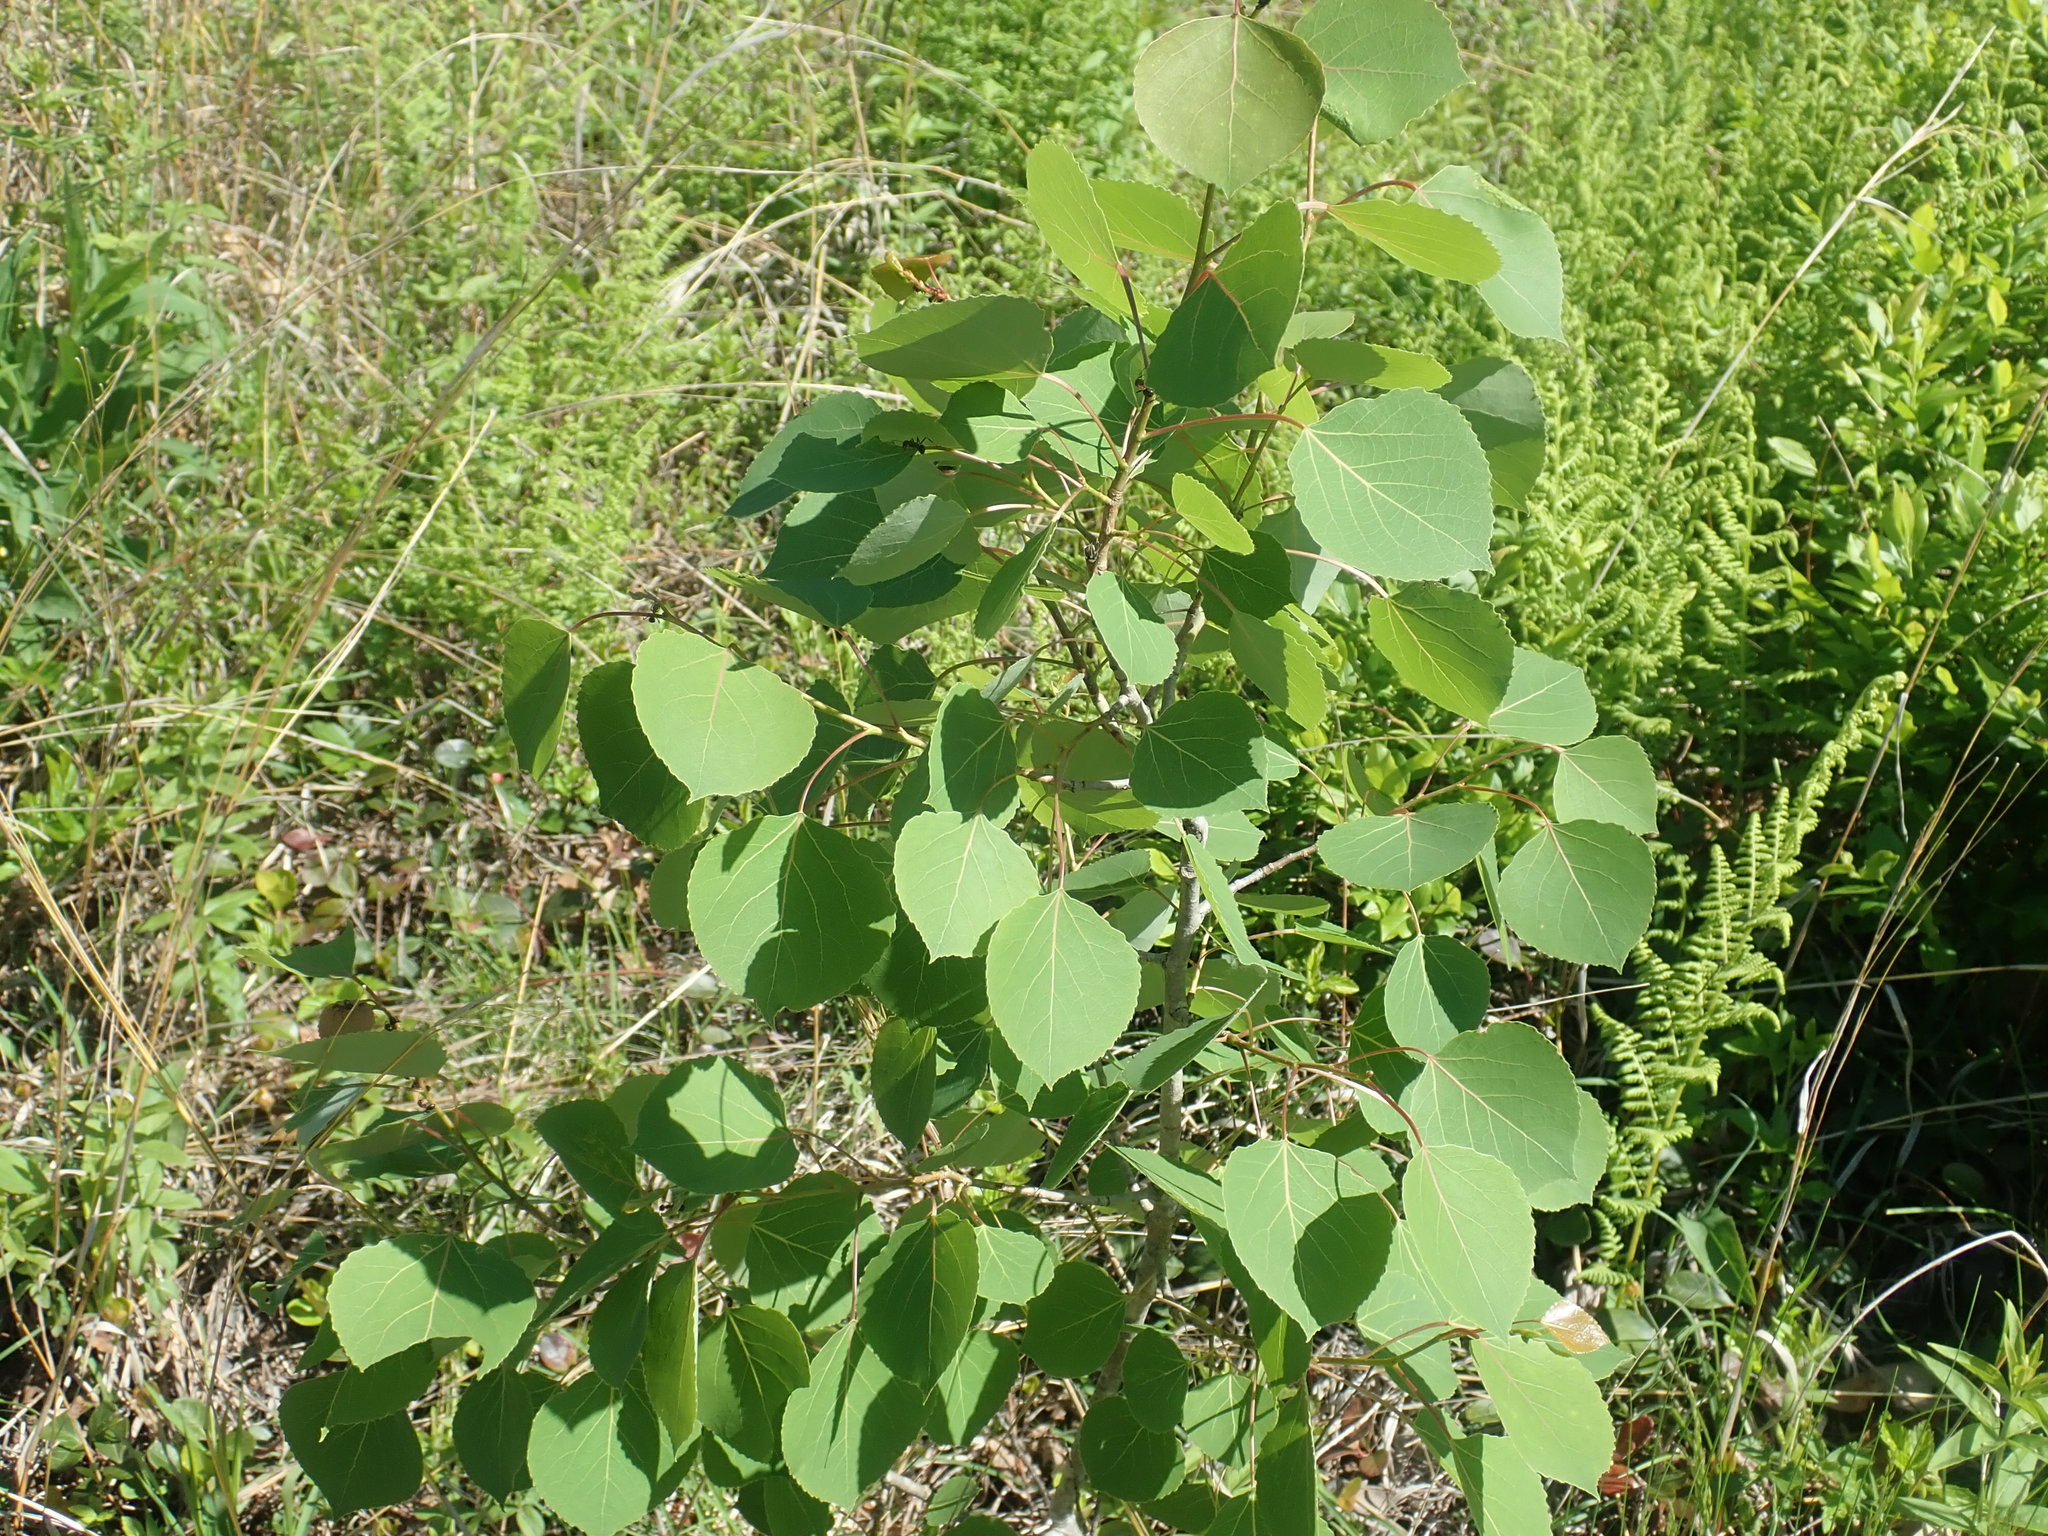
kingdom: Plantae
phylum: Tracheophyta
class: Magnoliopsida
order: Malpighiales
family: Salicaceae
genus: Populus
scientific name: Populus tremuloides
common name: Quaking aspen
